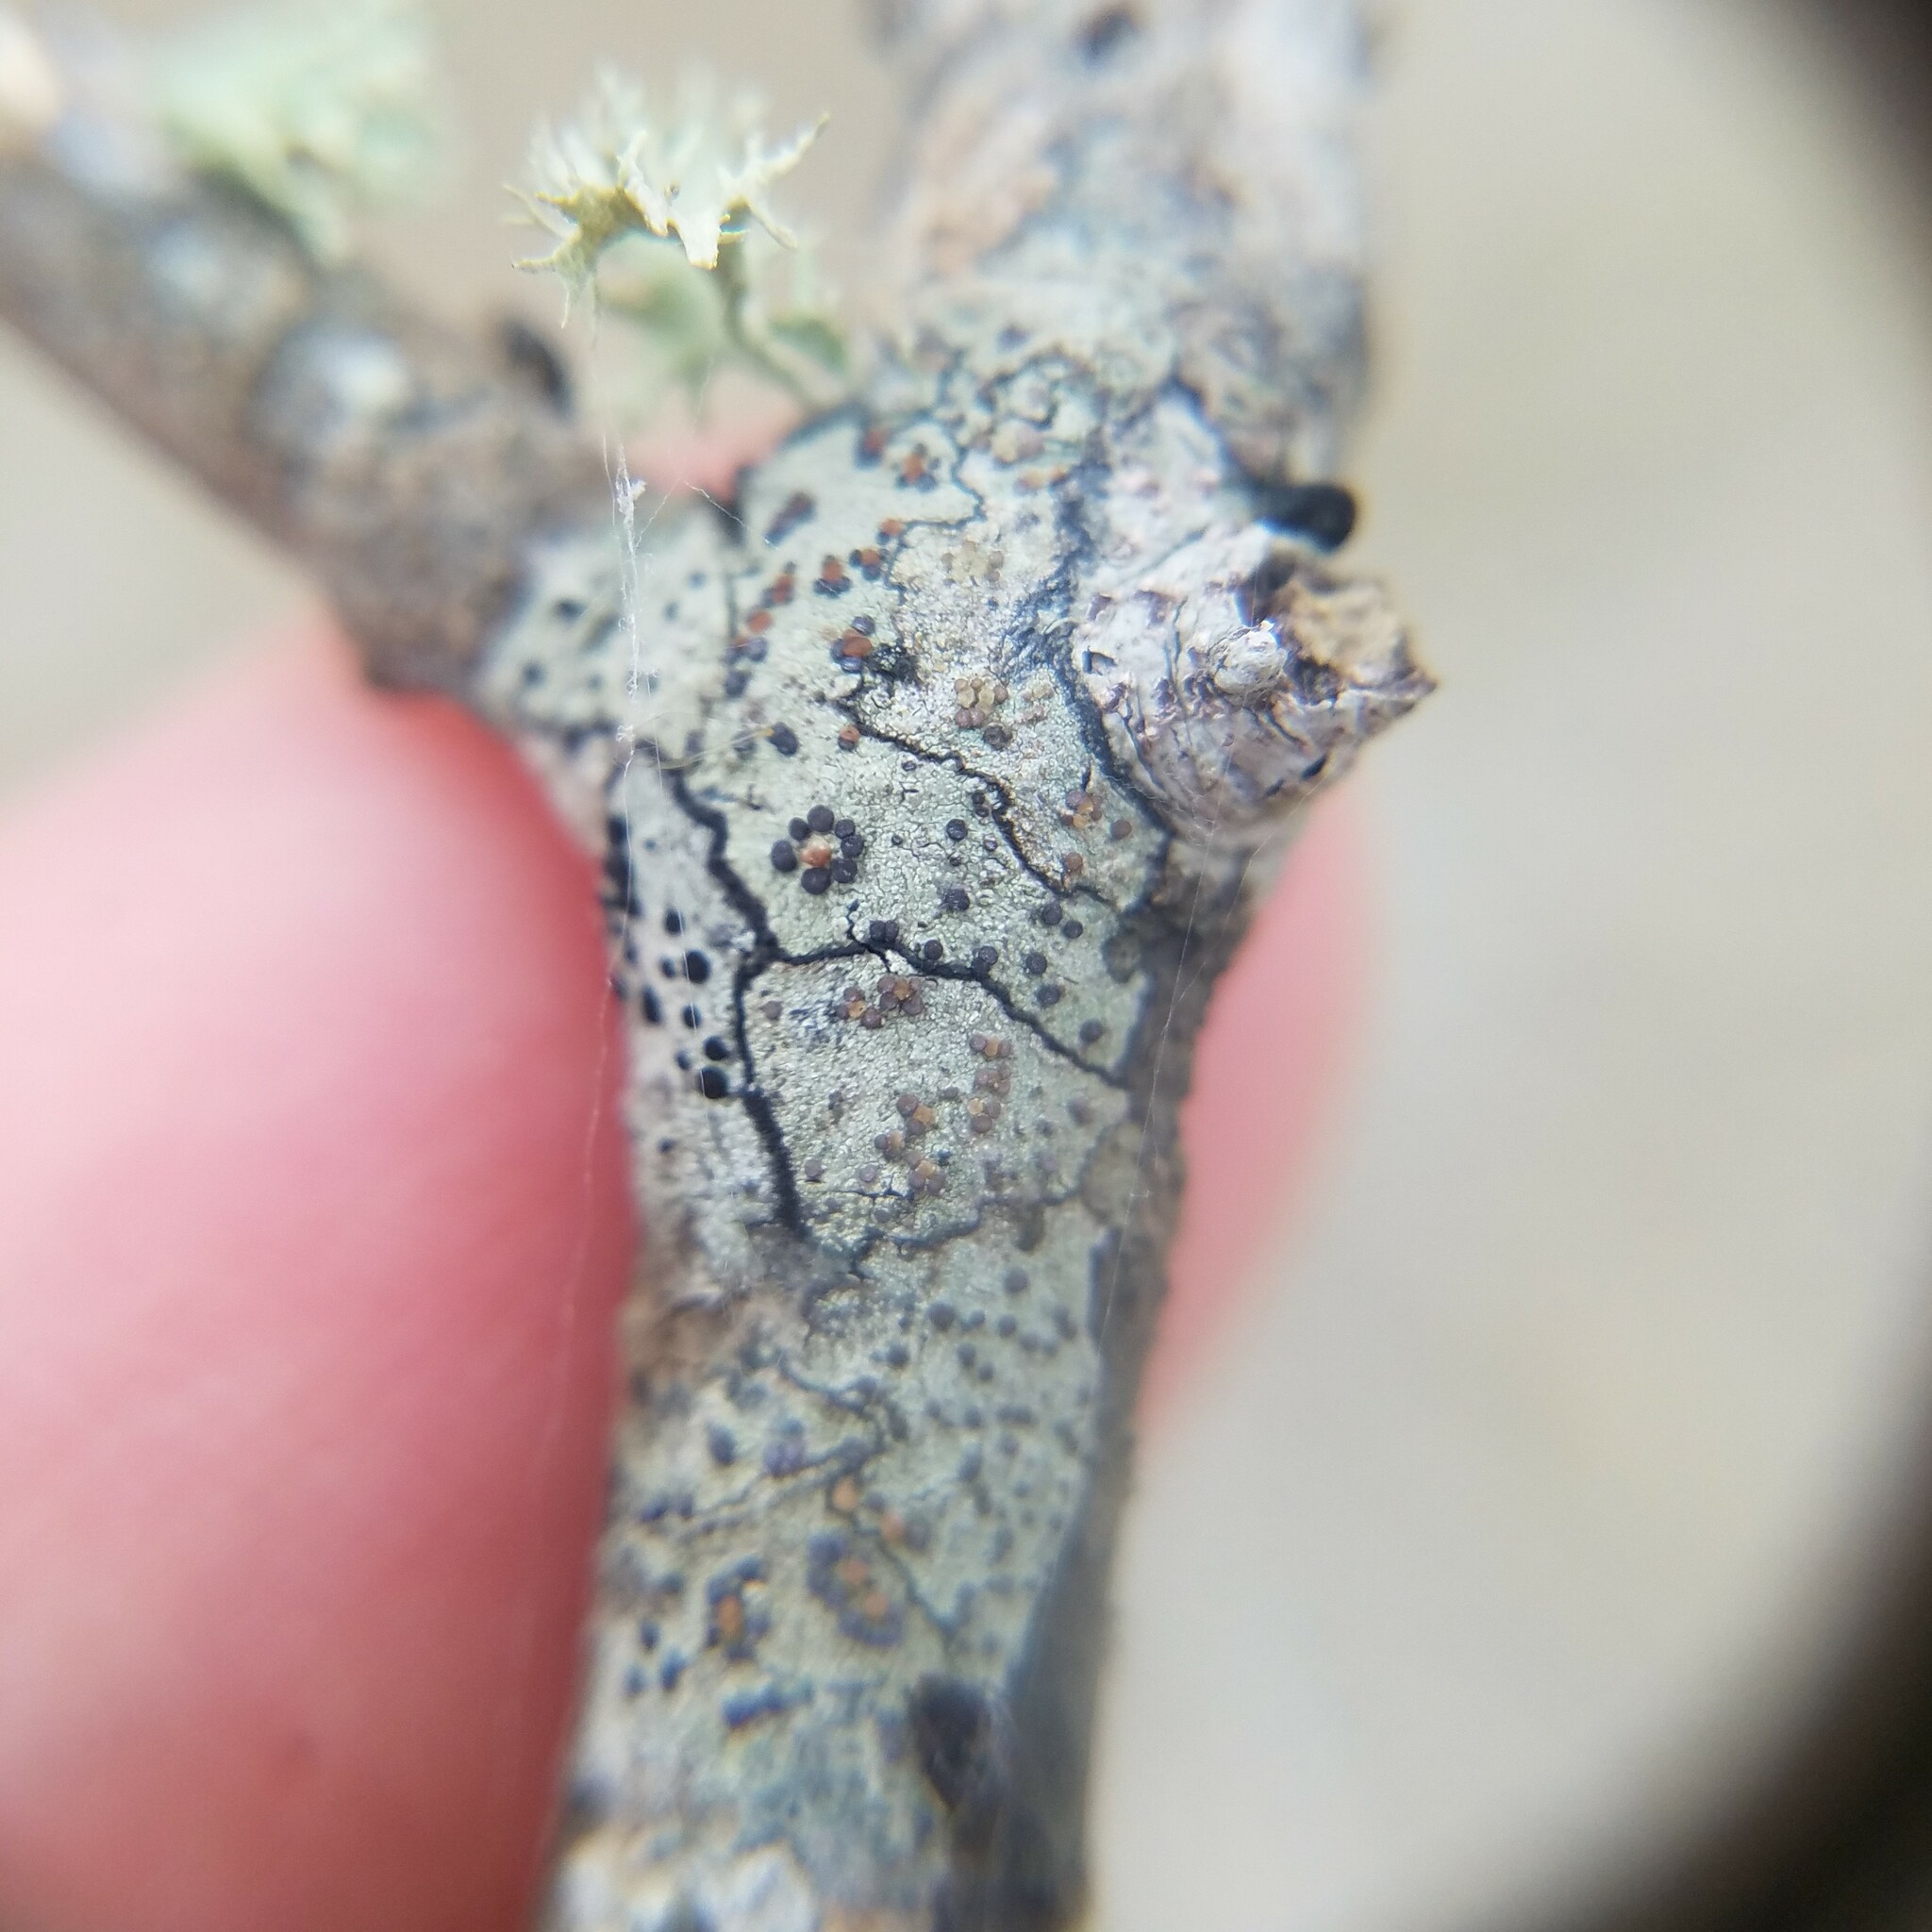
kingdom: Fungi
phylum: Ascomycota
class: Lecanoromycetes
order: Lecanorales
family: Lecanoraceae
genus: Traponora
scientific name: Traponora varians
